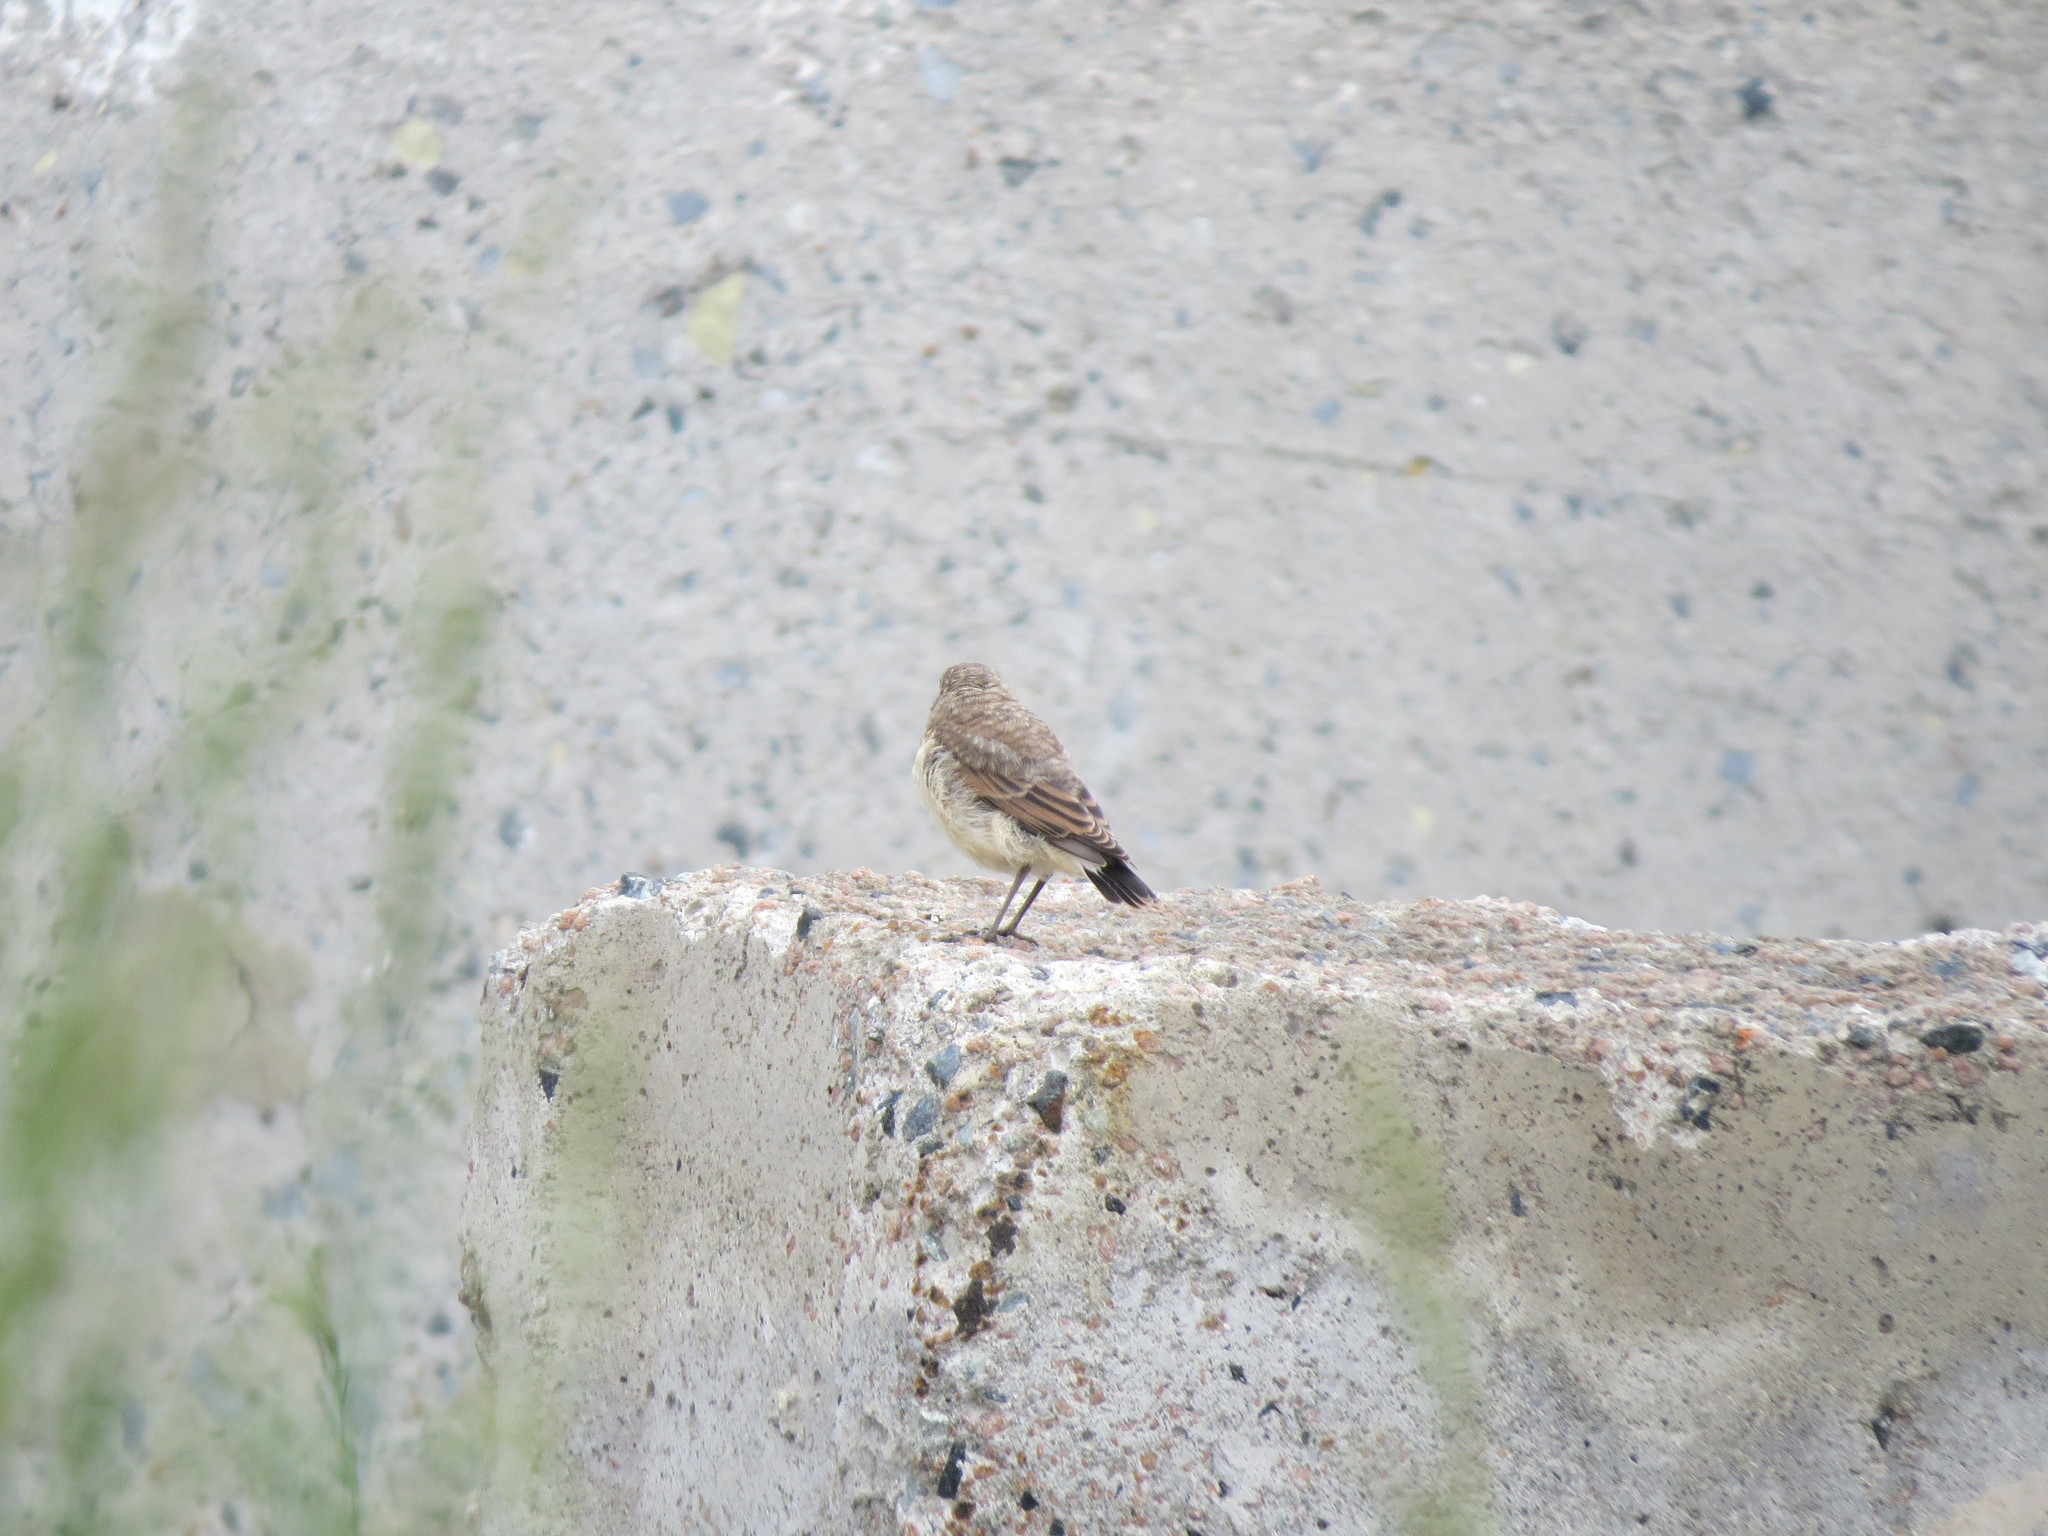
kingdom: Animalia
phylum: Chordata
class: Aves
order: Passeriformes
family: Muscicapidae
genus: Oenanthe
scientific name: Oenanthe oenanthe
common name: Northern wheatear
